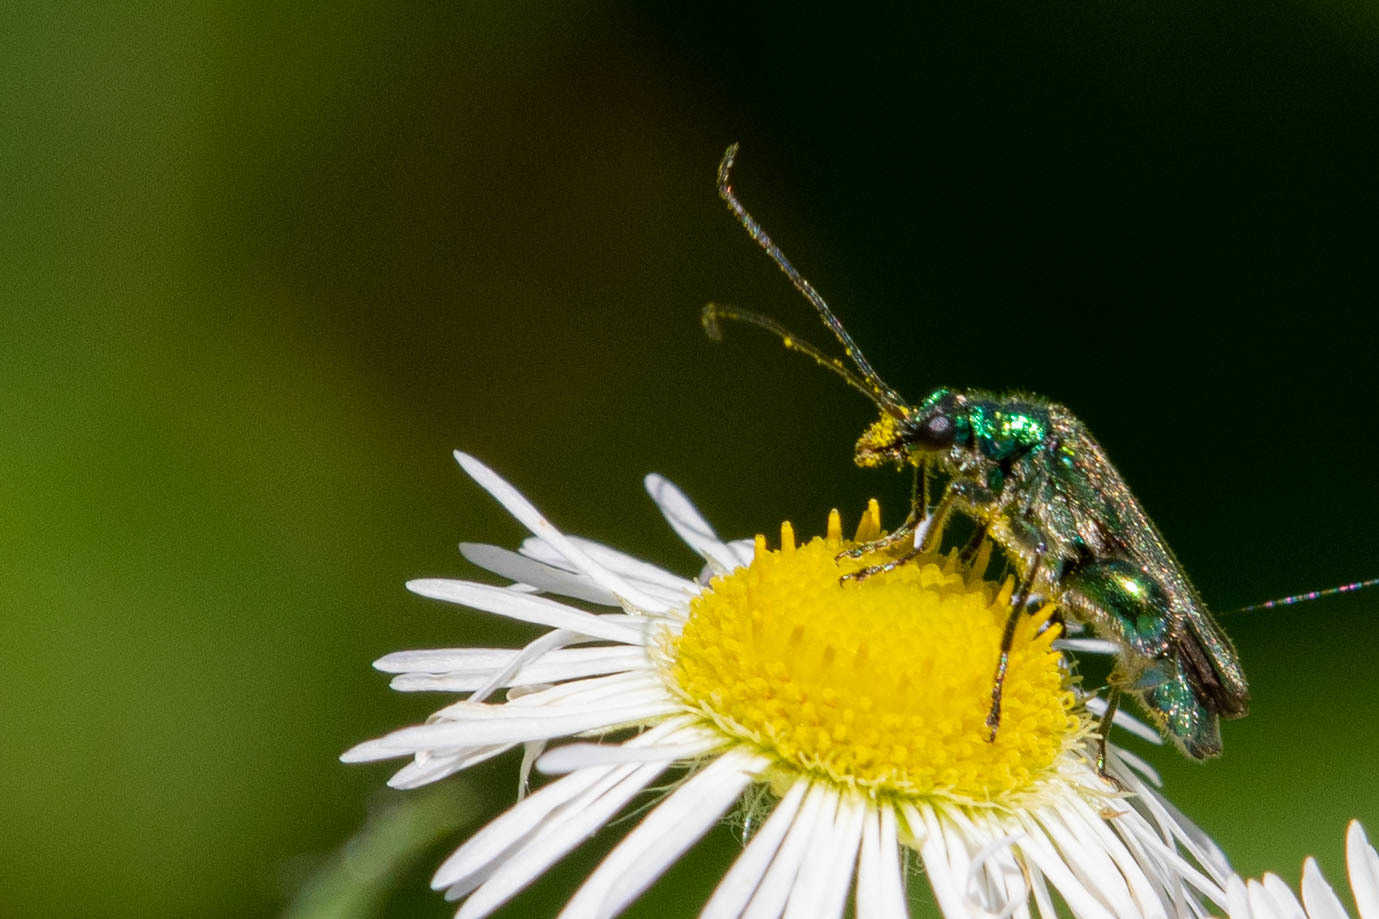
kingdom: Animalia
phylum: Arthropoda
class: Insecta
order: Coleoptera
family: Oedemeridae
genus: Oedemera
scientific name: Oedemera nobilis
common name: Swollen-thighed beetle
